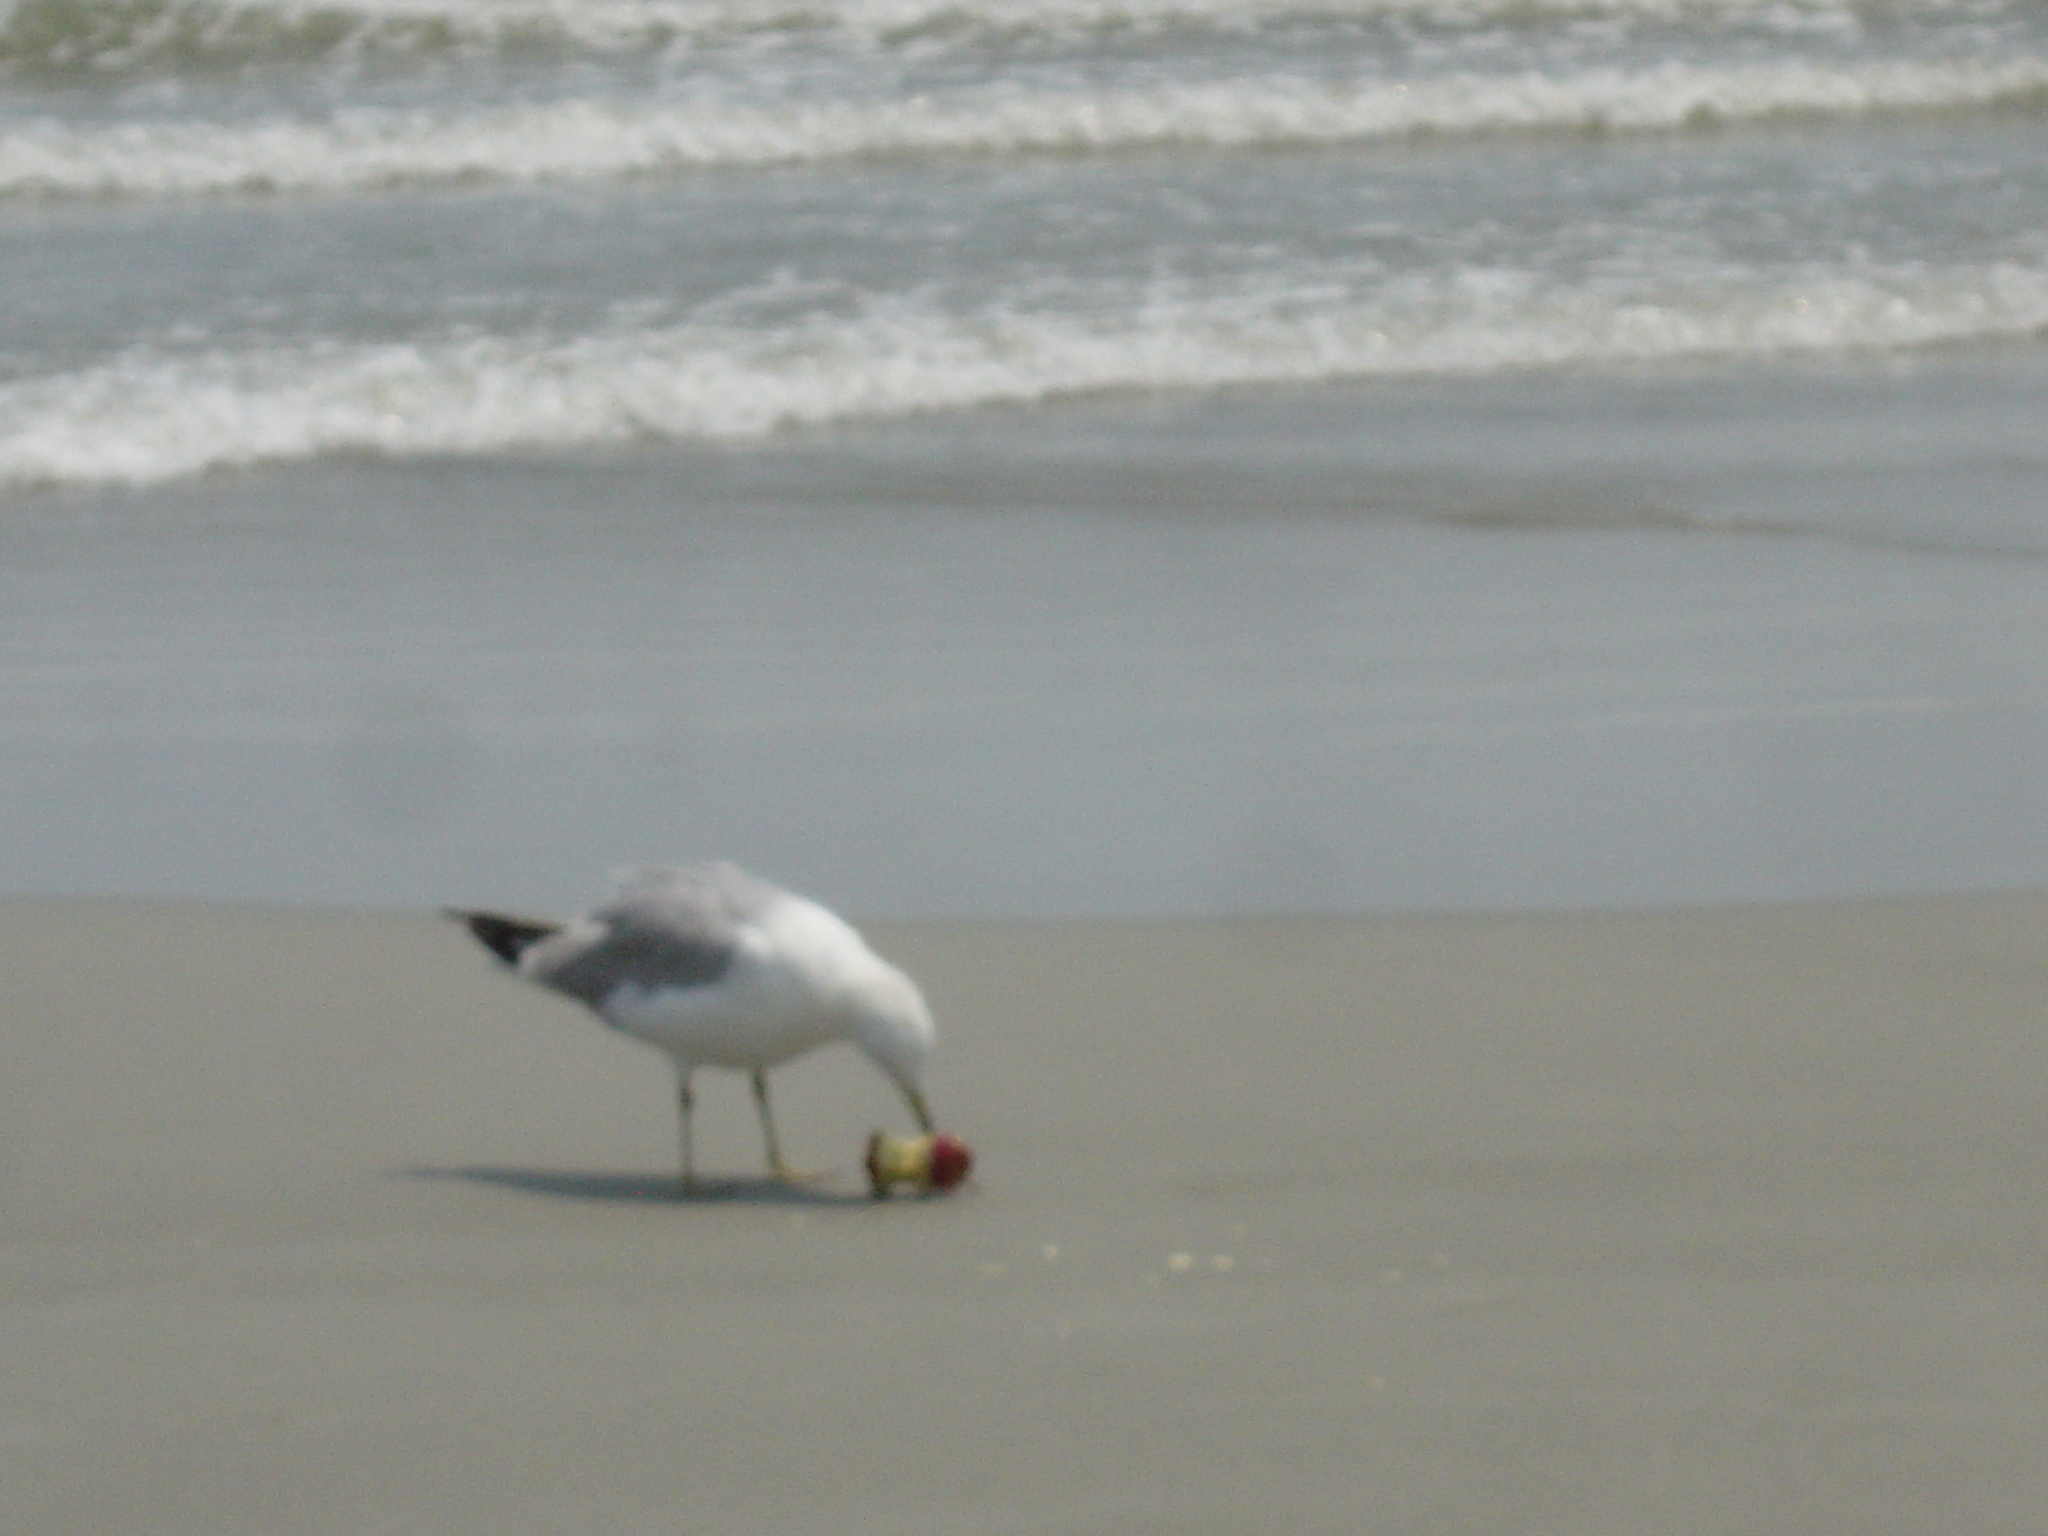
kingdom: Animalia
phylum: Chordata
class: Aves
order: Charadriiformes
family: Laridae
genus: Larus
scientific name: Larus delawarensis
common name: Ring-billed gull
